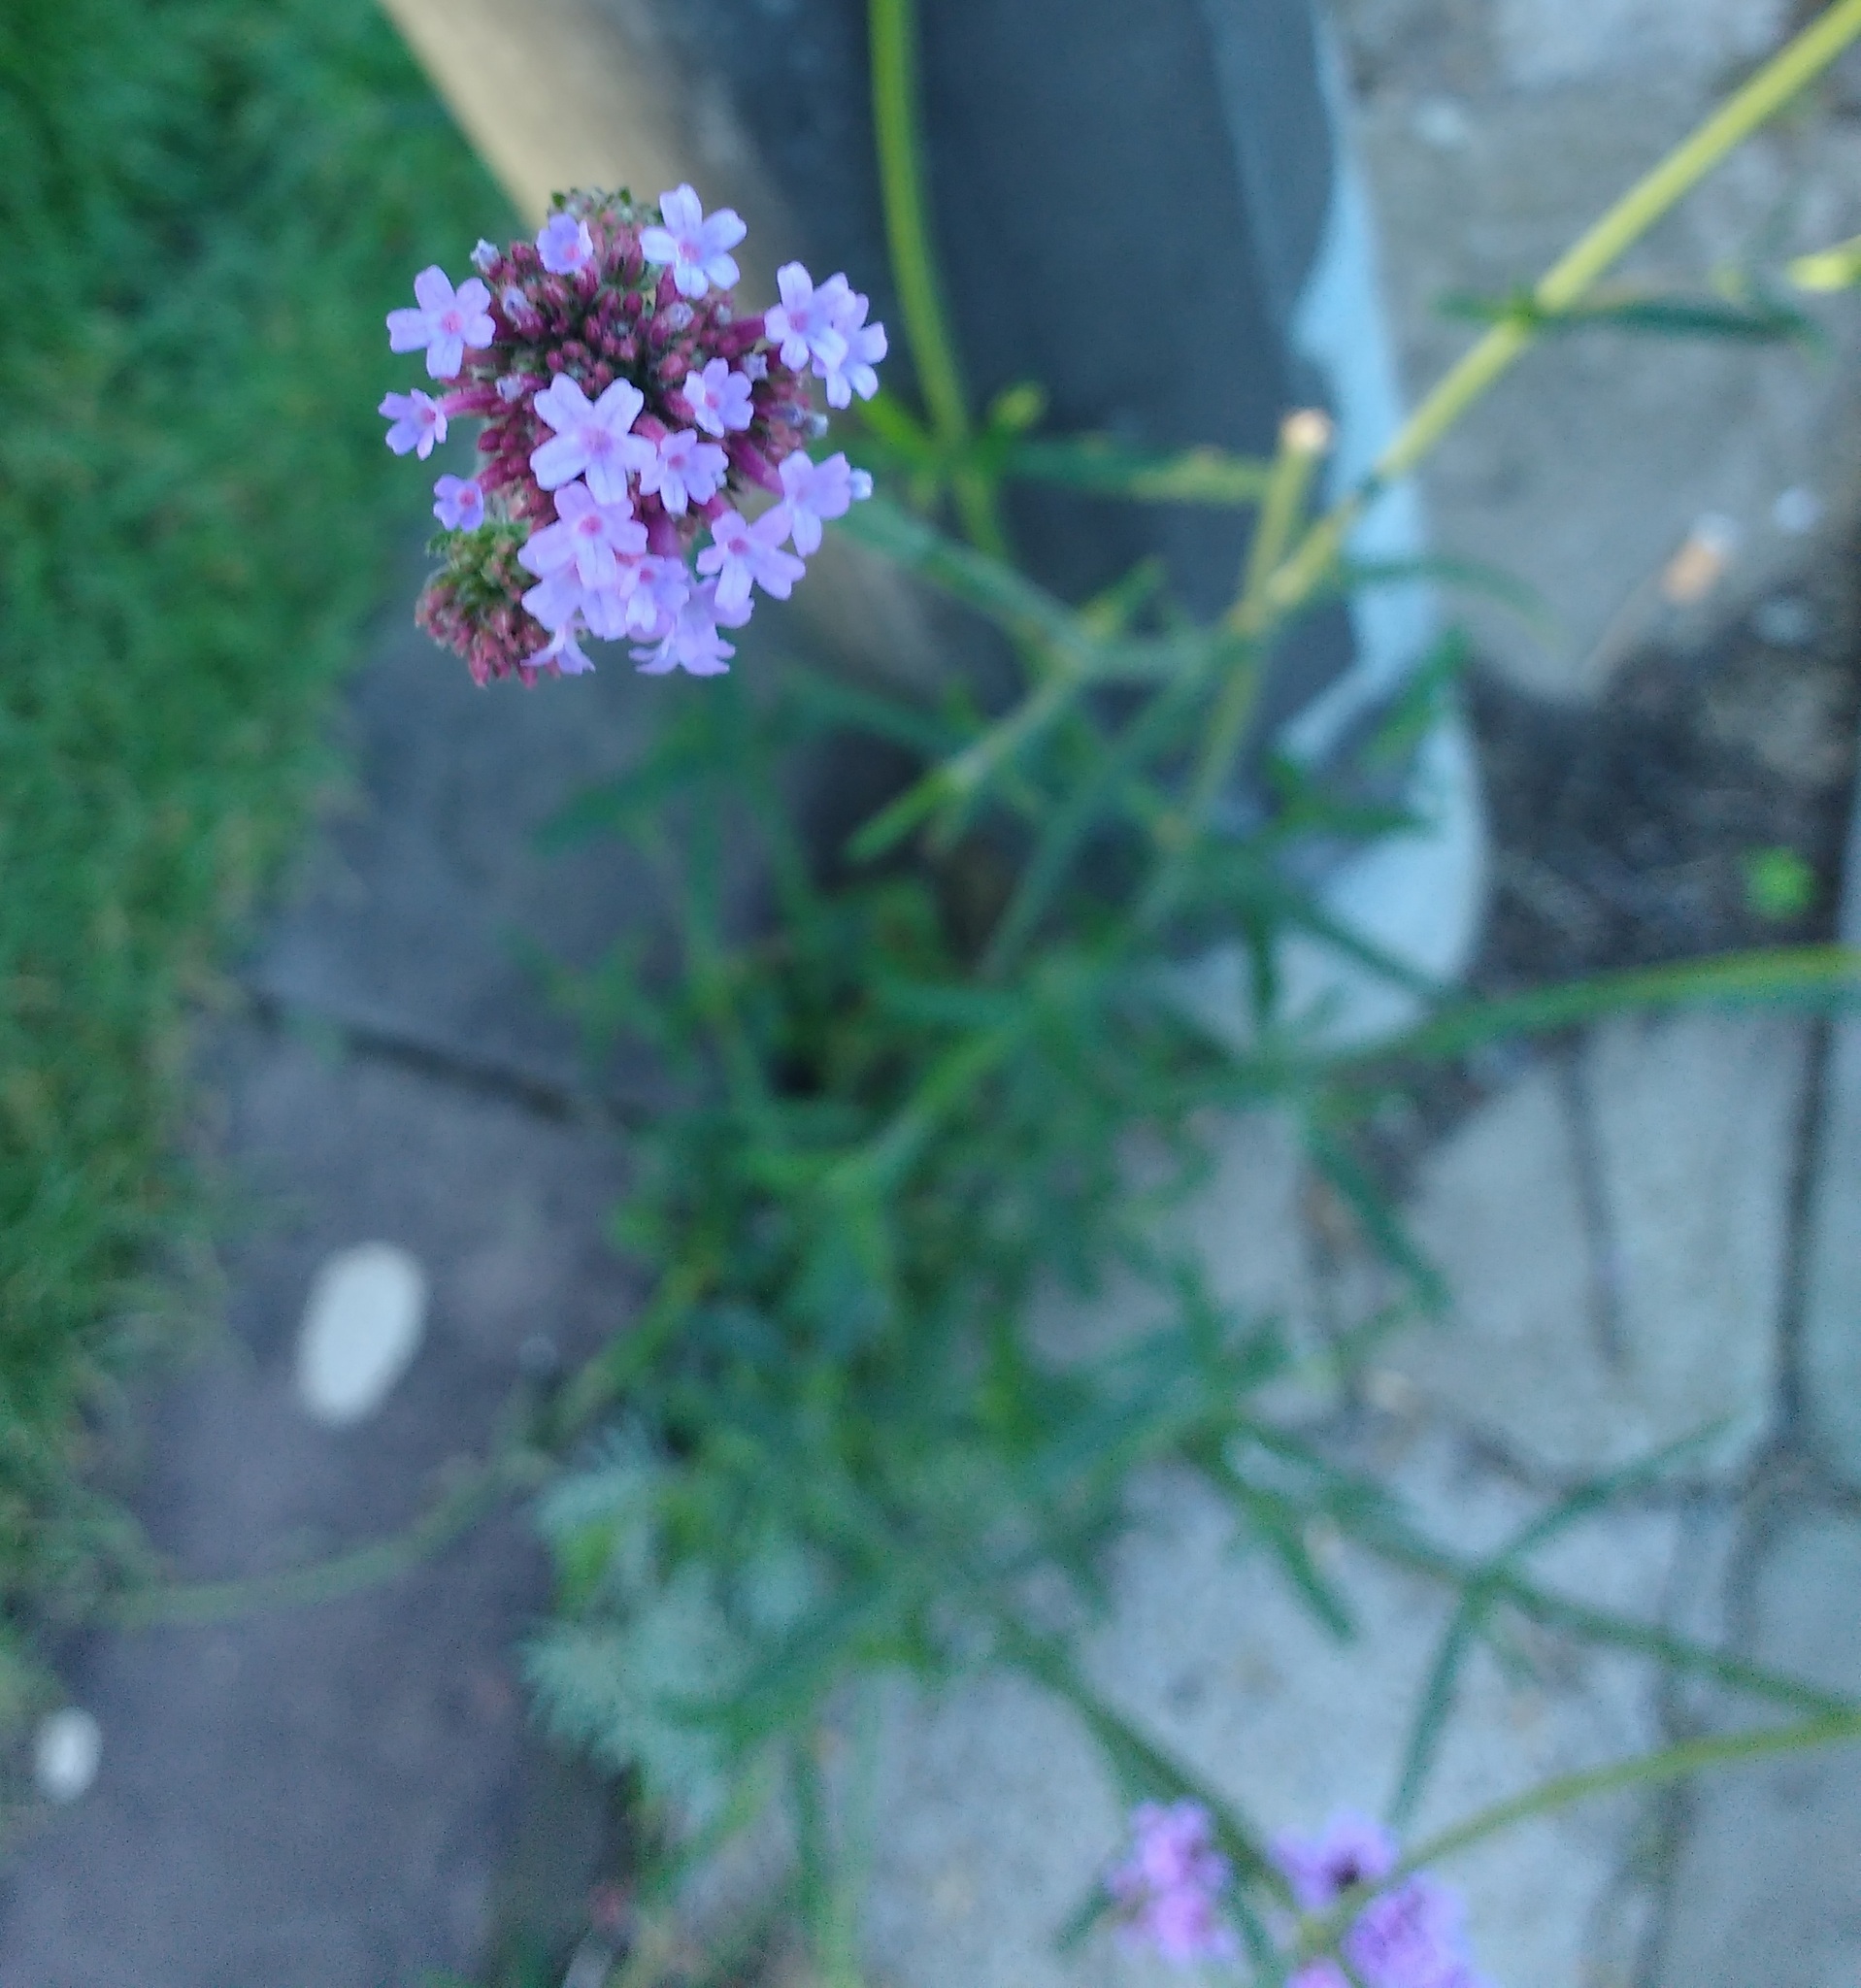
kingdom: Plantae
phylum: Tracheophyta
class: Magnoliopsida
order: Lamiales
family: Verbenaceae
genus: Verbena
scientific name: Verbena bonariensis
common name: Purpletop vervain
